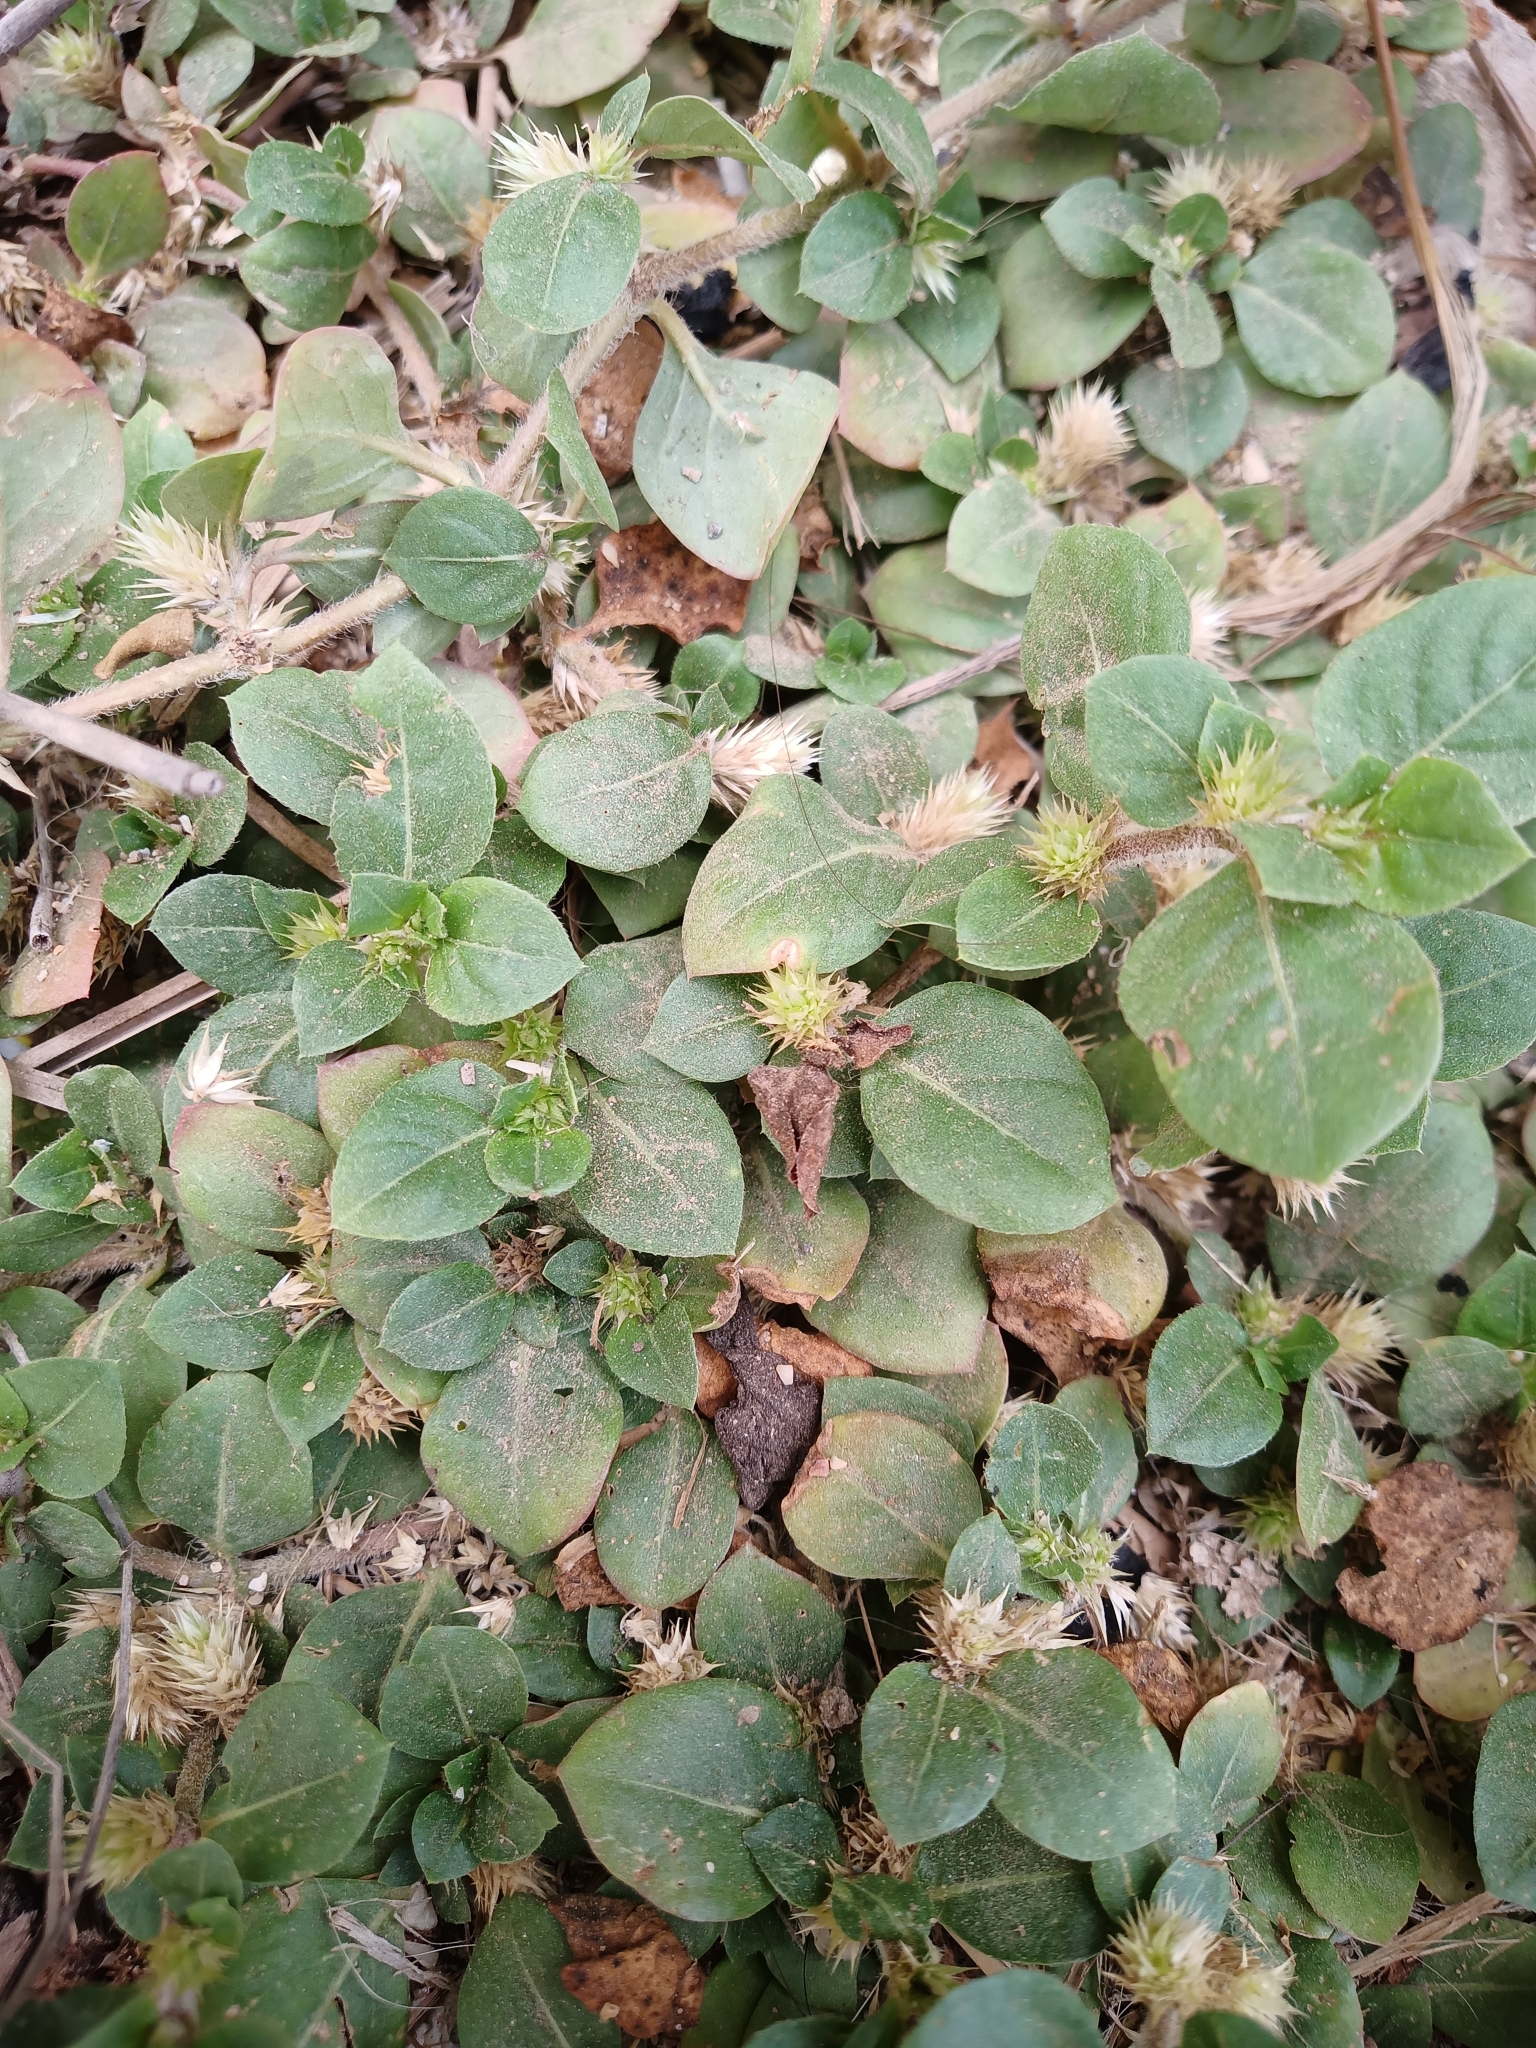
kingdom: Plantae
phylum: Tracheophyta
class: Magnoliopsida
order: Caryophyllales
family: Amaranthaceae
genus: Alternanthera
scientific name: Alternanthera pungens
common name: Khakiweed
